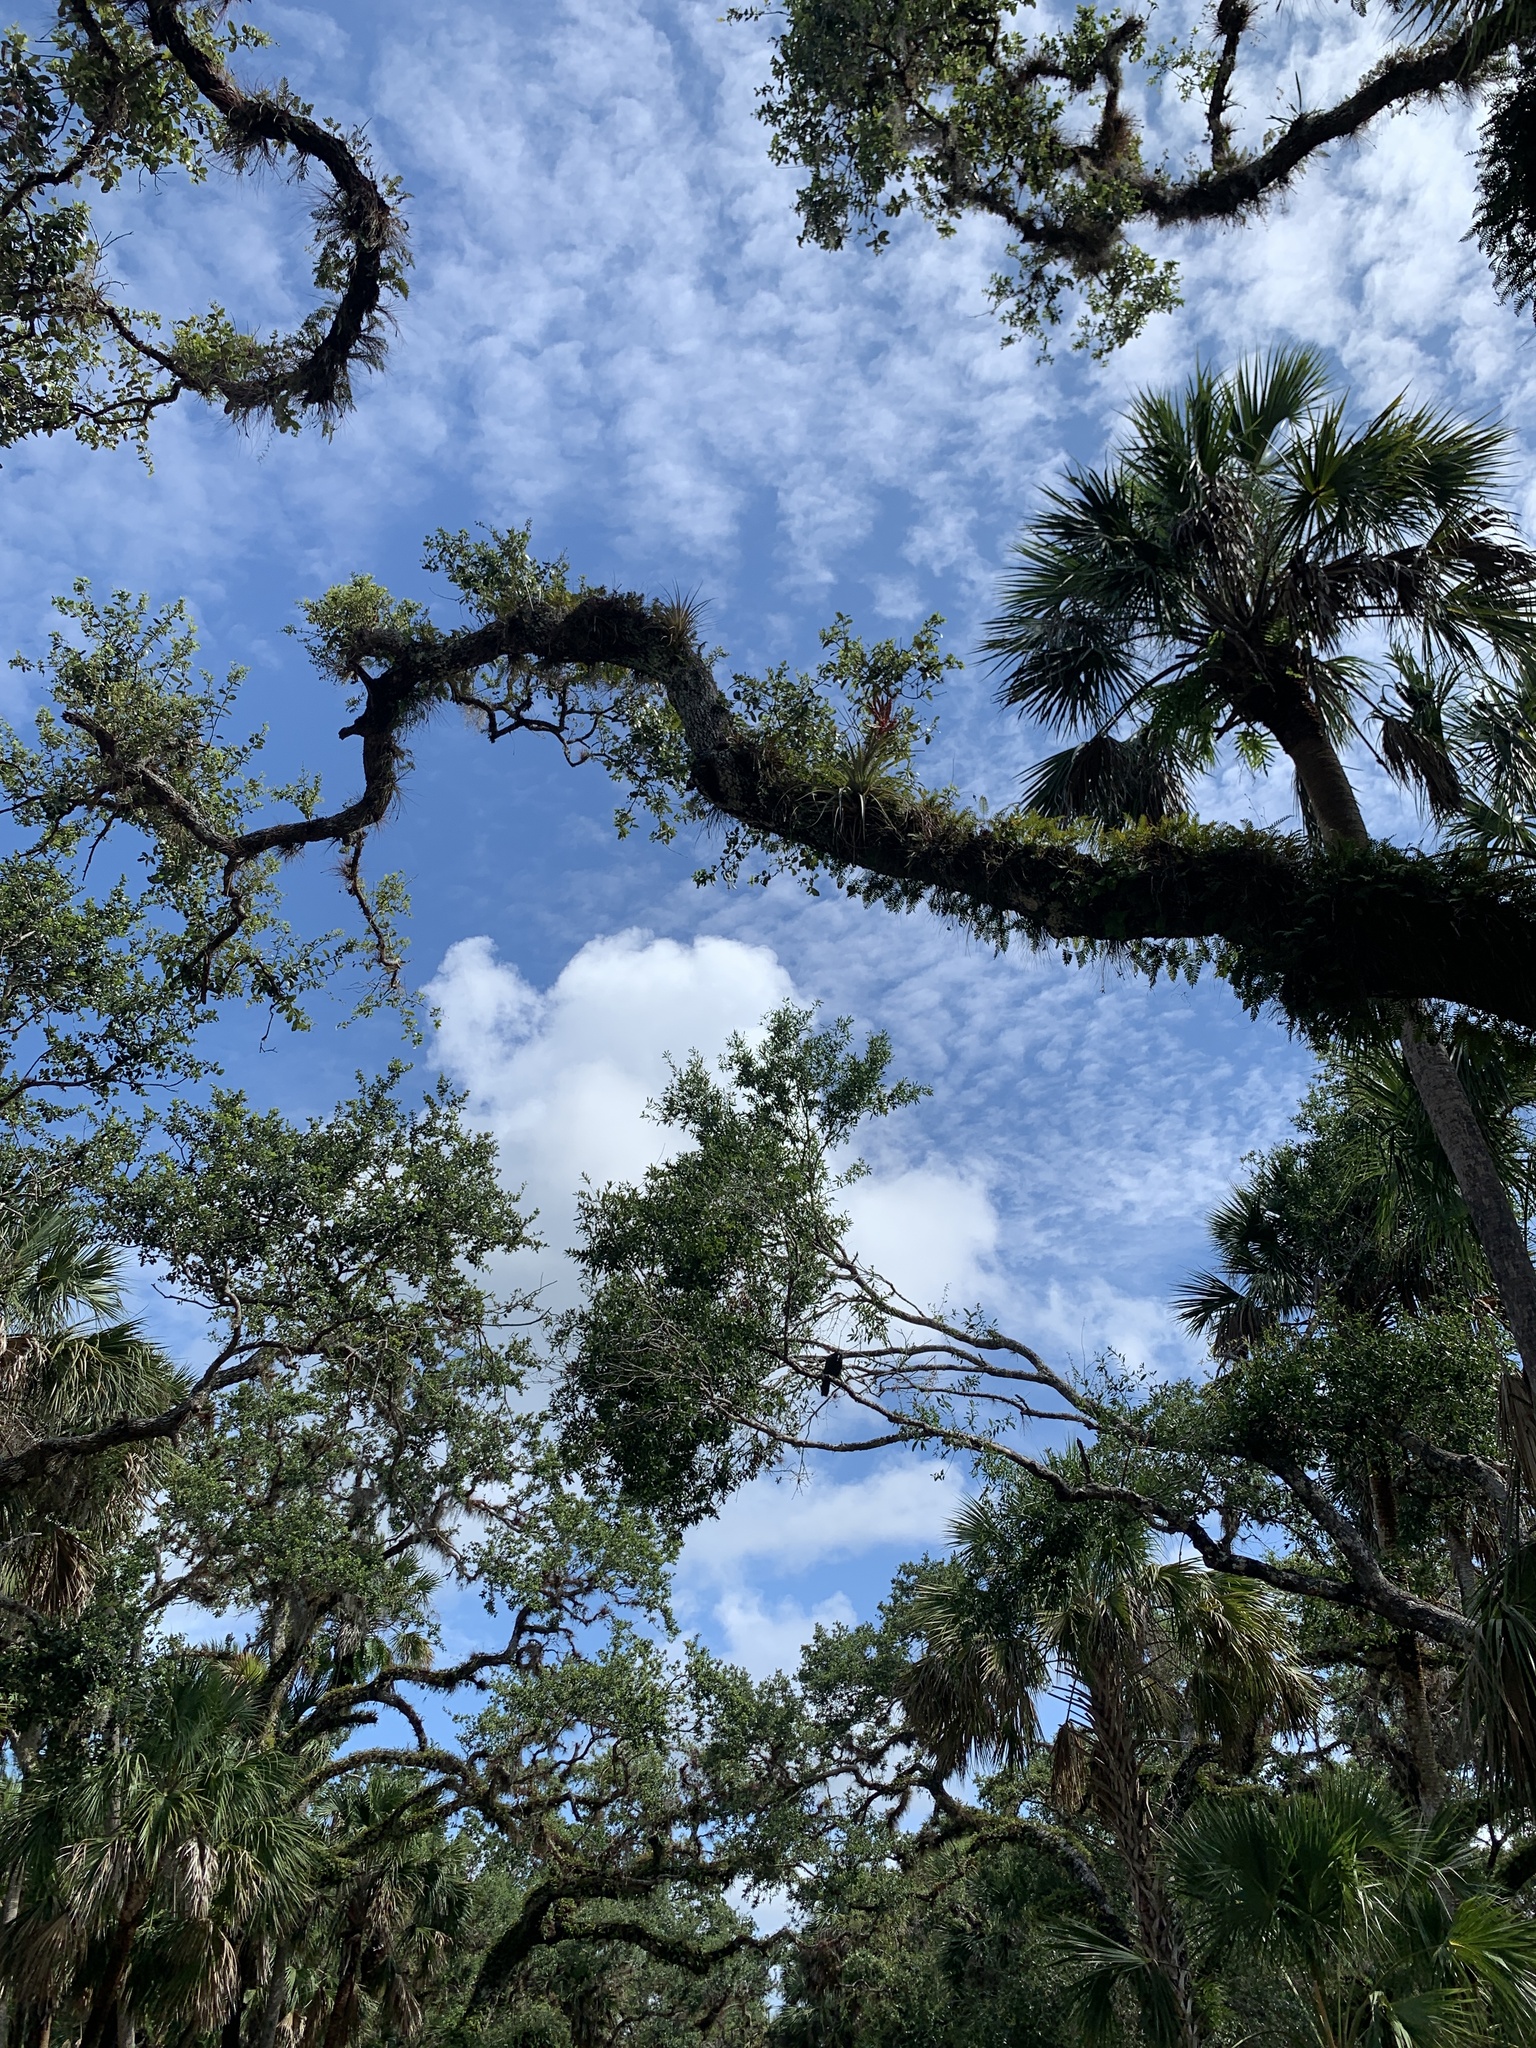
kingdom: Plantae
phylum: Tracheophyta
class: Liliopsida
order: Poales
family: Bromeliaceae
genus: Tillandsia
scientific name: Tillandsia fasciculata
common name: Giant airplant
